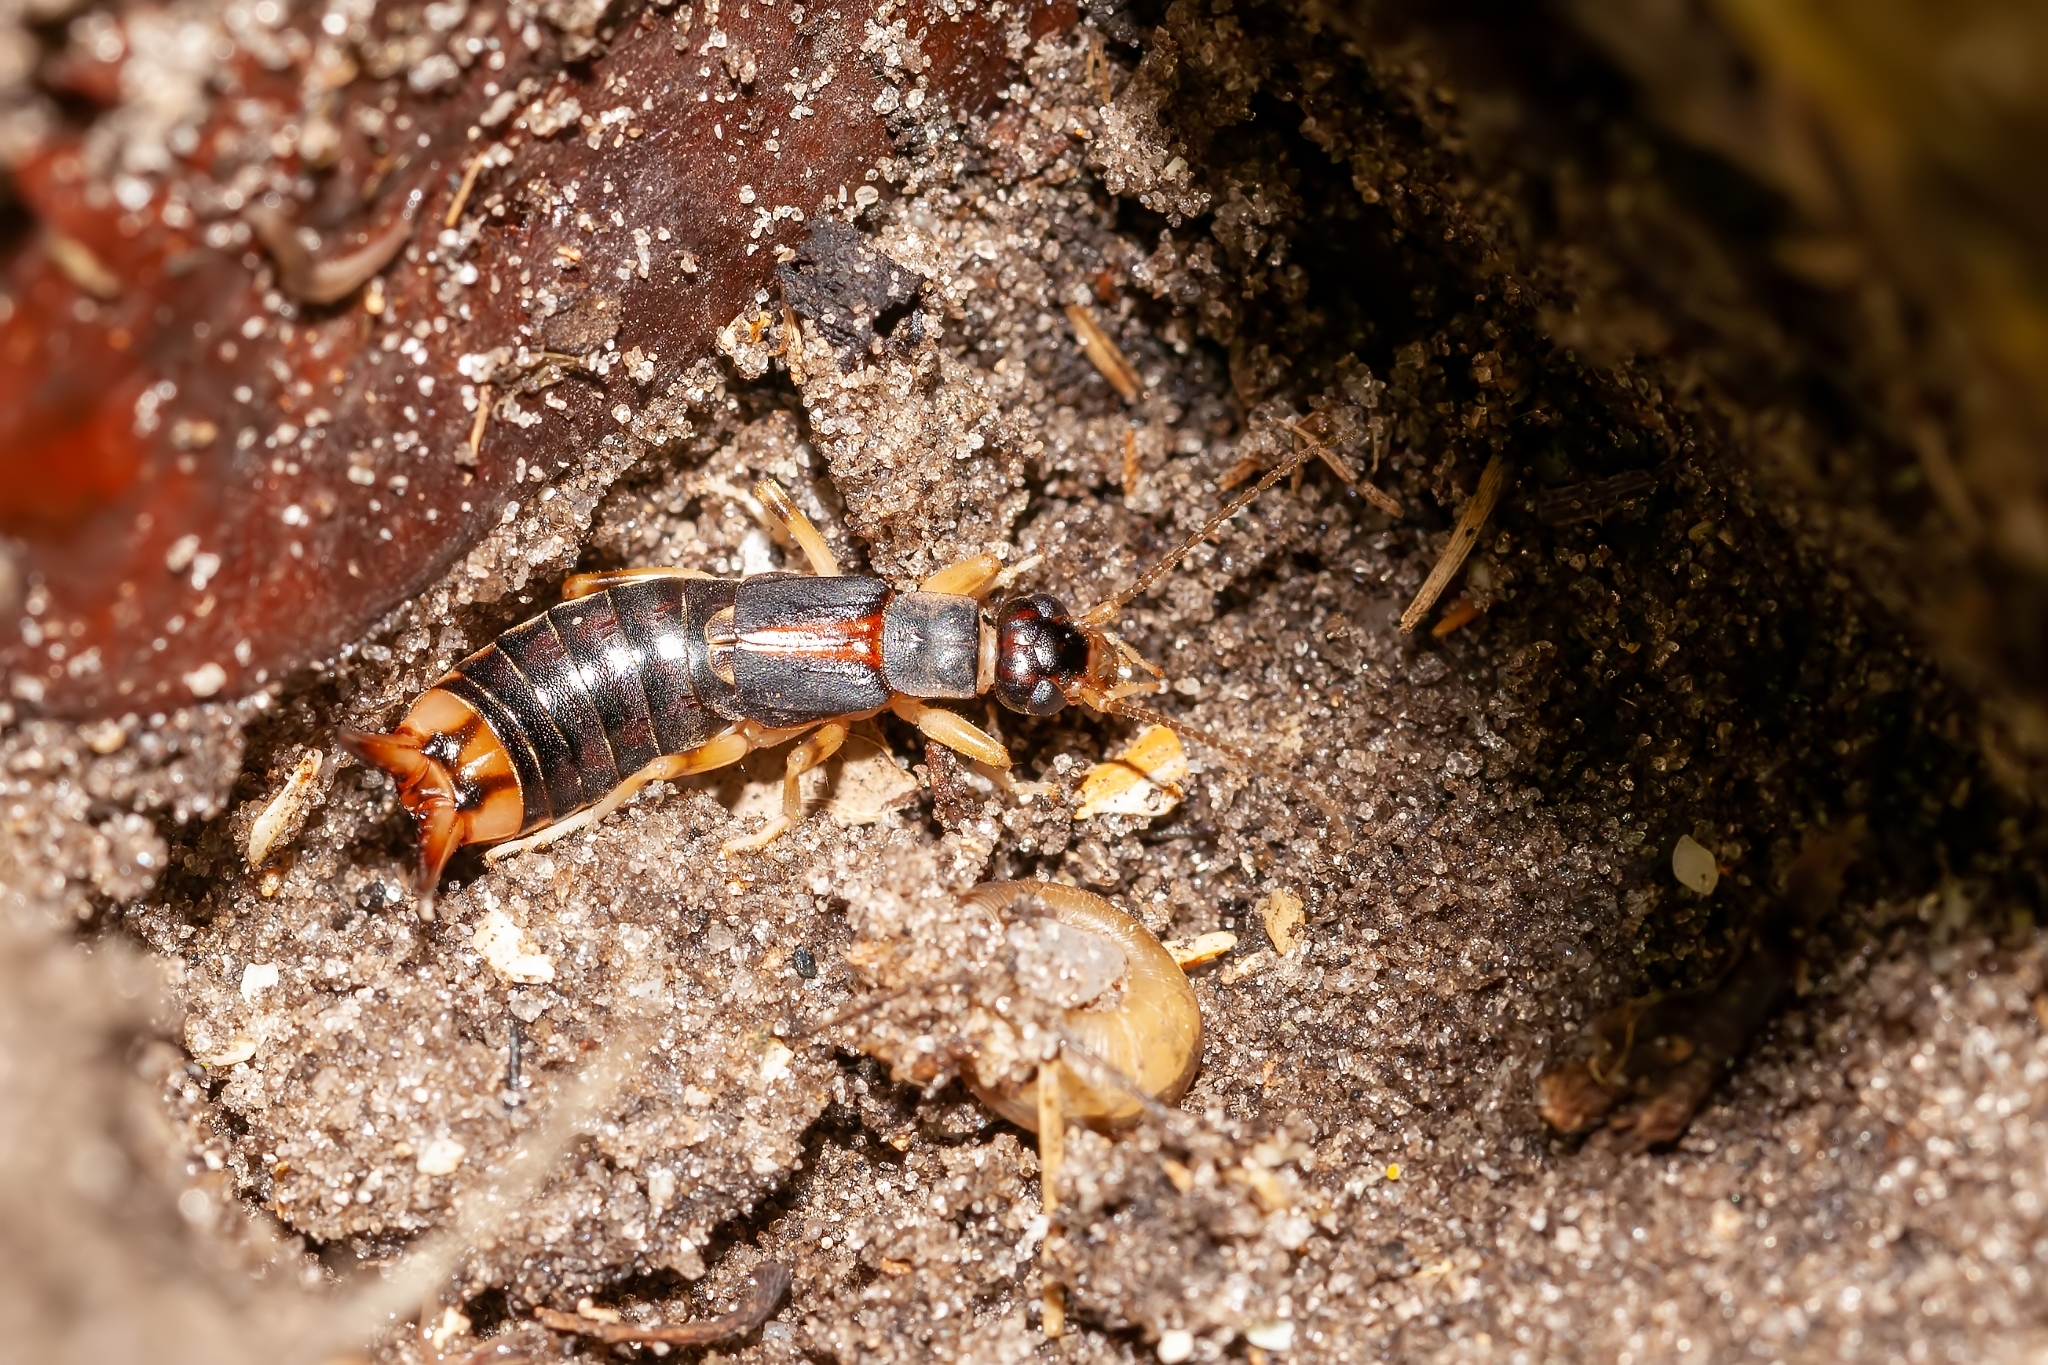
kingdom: Animalia
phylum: Arthropoda
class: Insecta
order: Dermaptera
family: Labiduridae
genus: Labidura
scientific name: Labidura riparia
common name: Striped earwig
